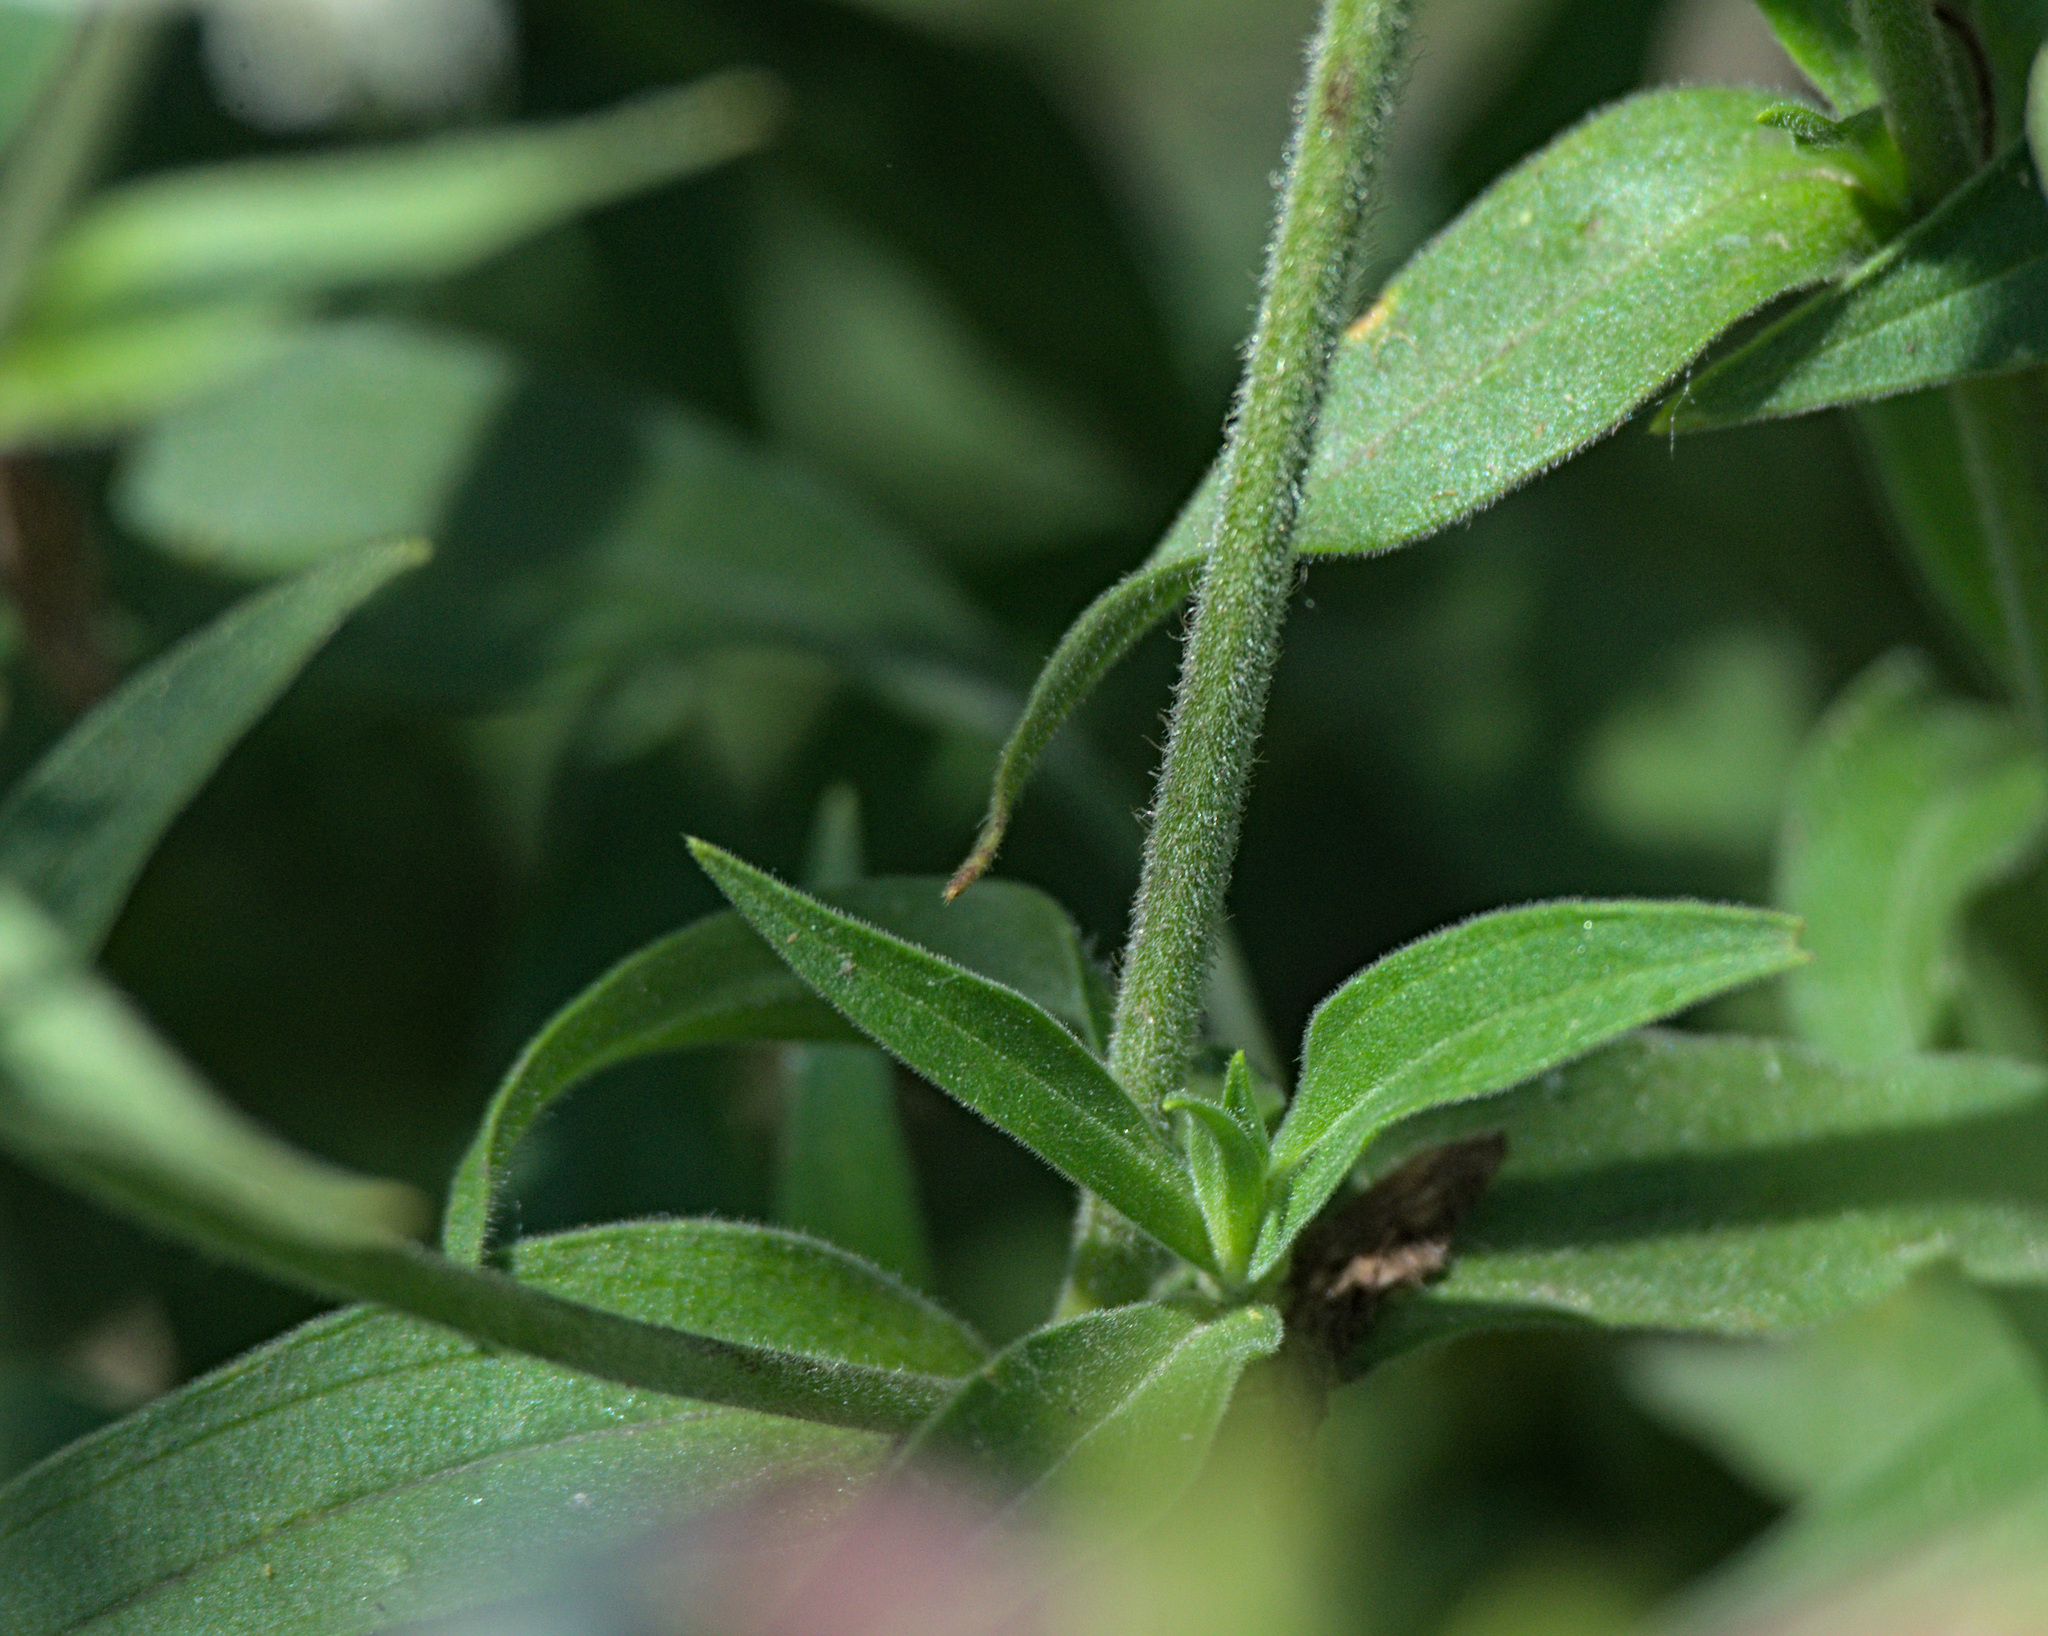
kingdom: Plantae
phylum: Tracheophyta
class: Magnoliopsida
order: Caryophyllales
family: Caryophyllaceae
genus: Silene
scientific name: Silene latifolia
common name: White campion
